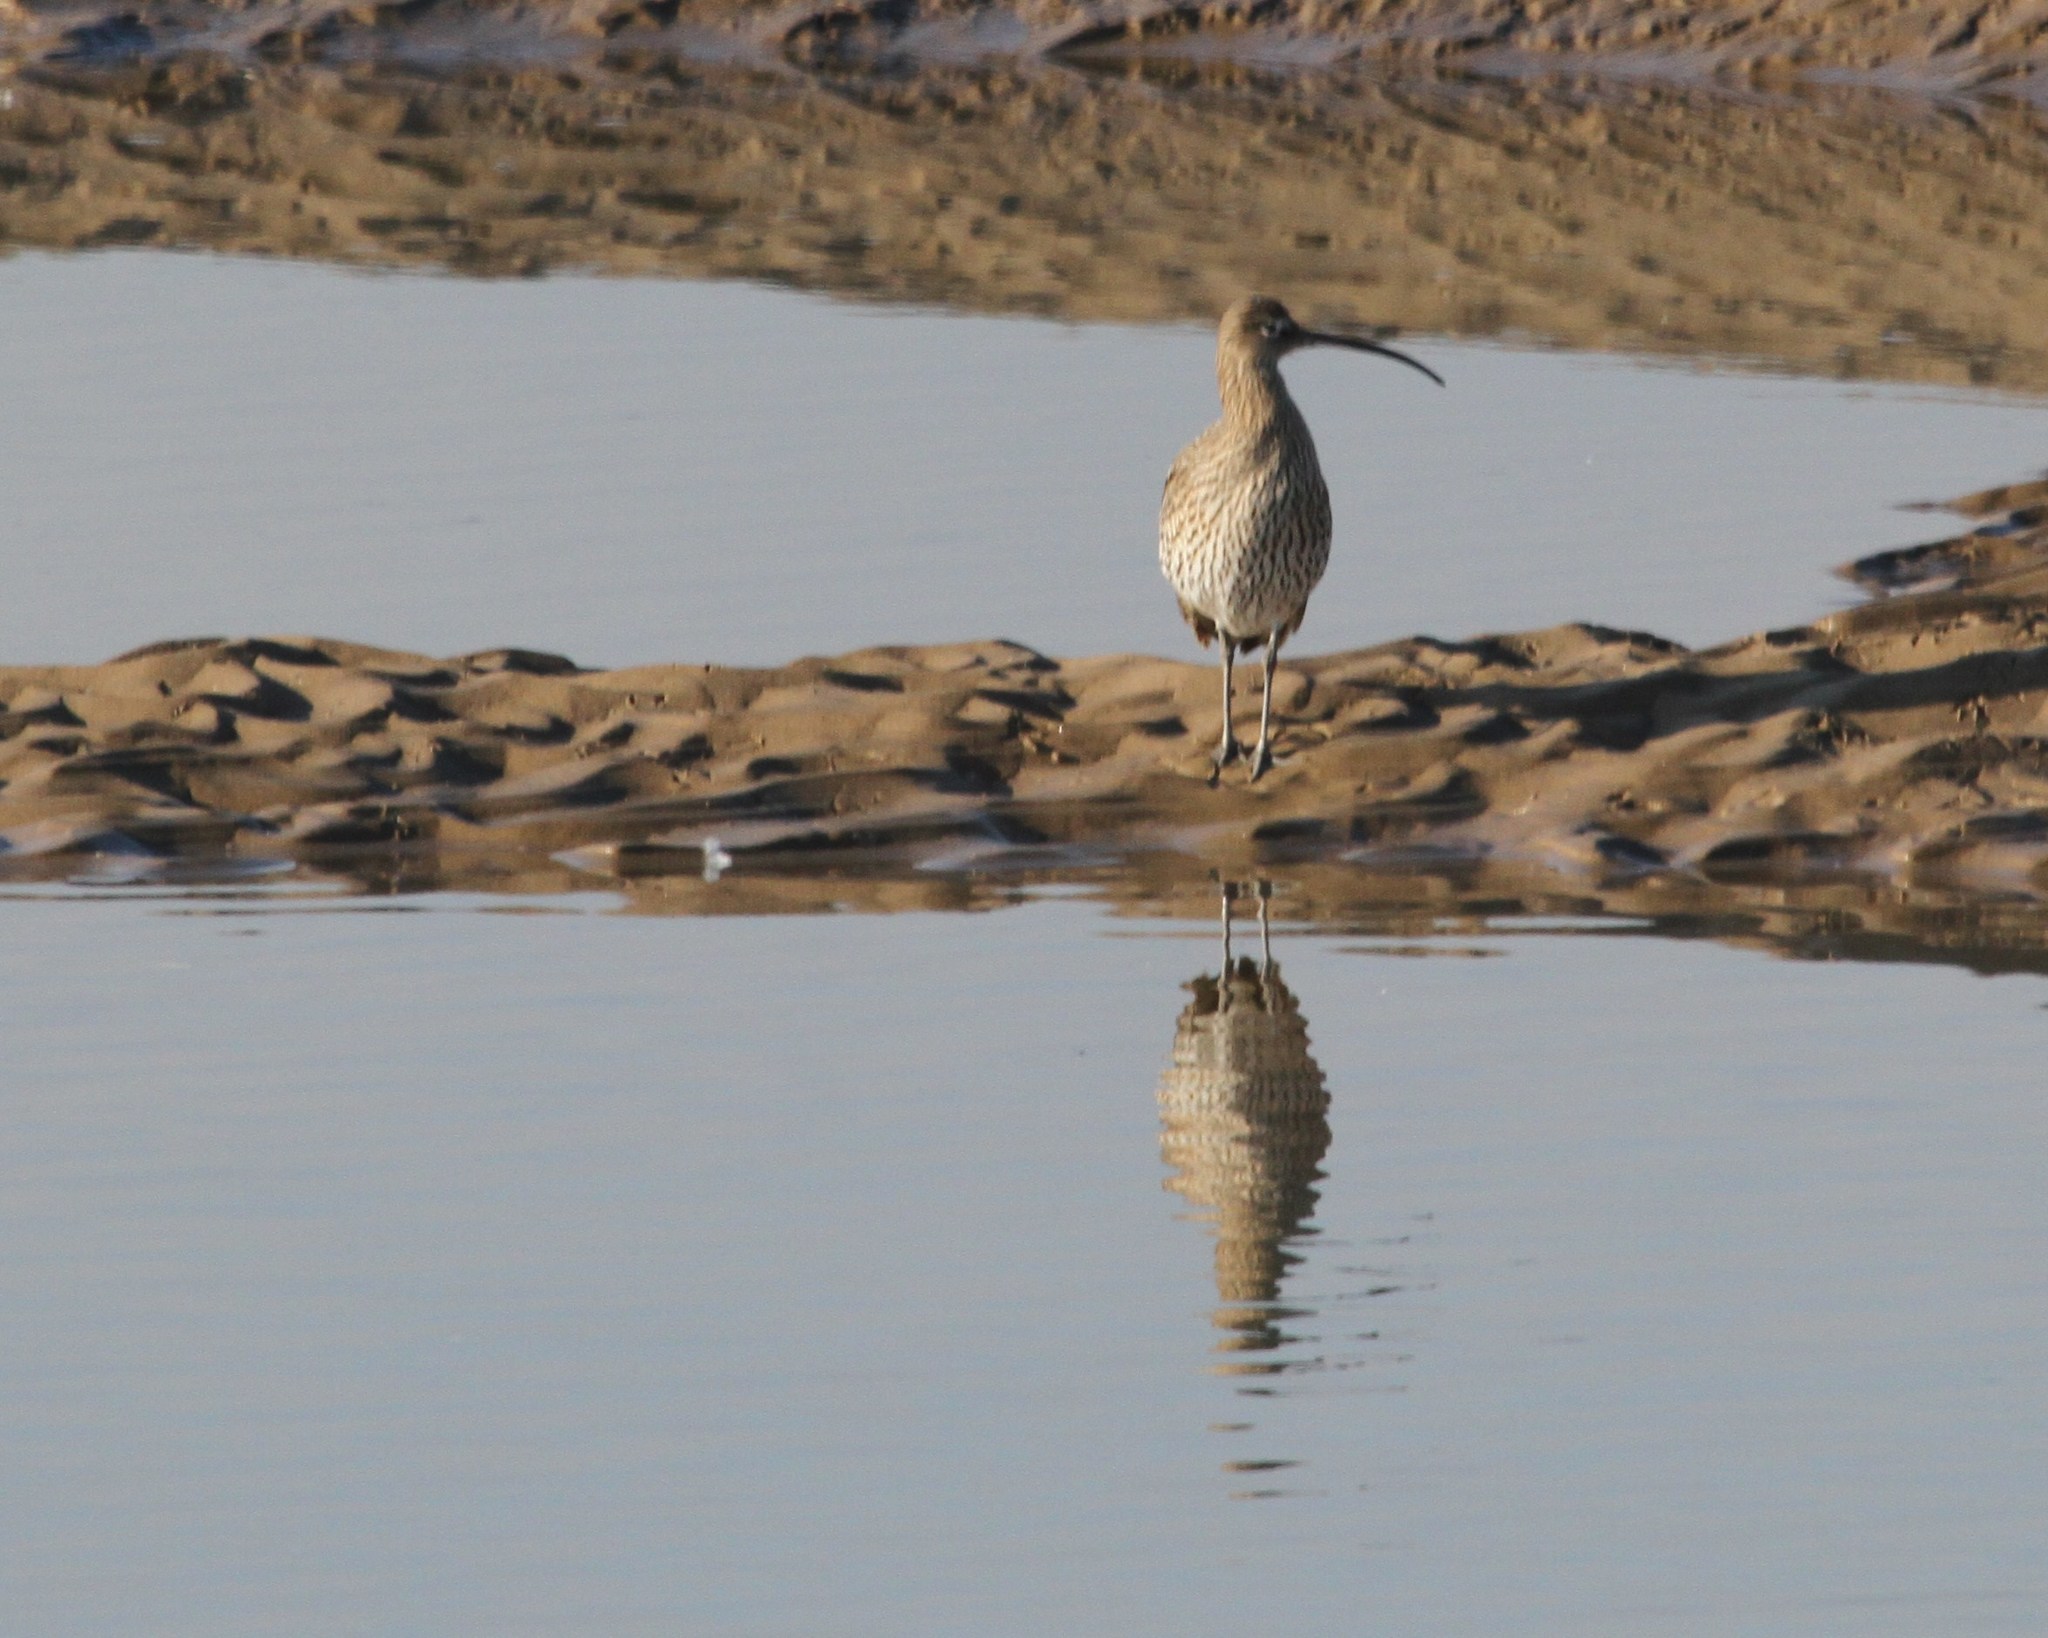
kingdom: Animalia
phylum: Chordata
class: Aves
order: Charadriiformes
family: Scolopacidae
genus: Numenius
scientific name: Numenius arquata
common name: Eurasian curlew
